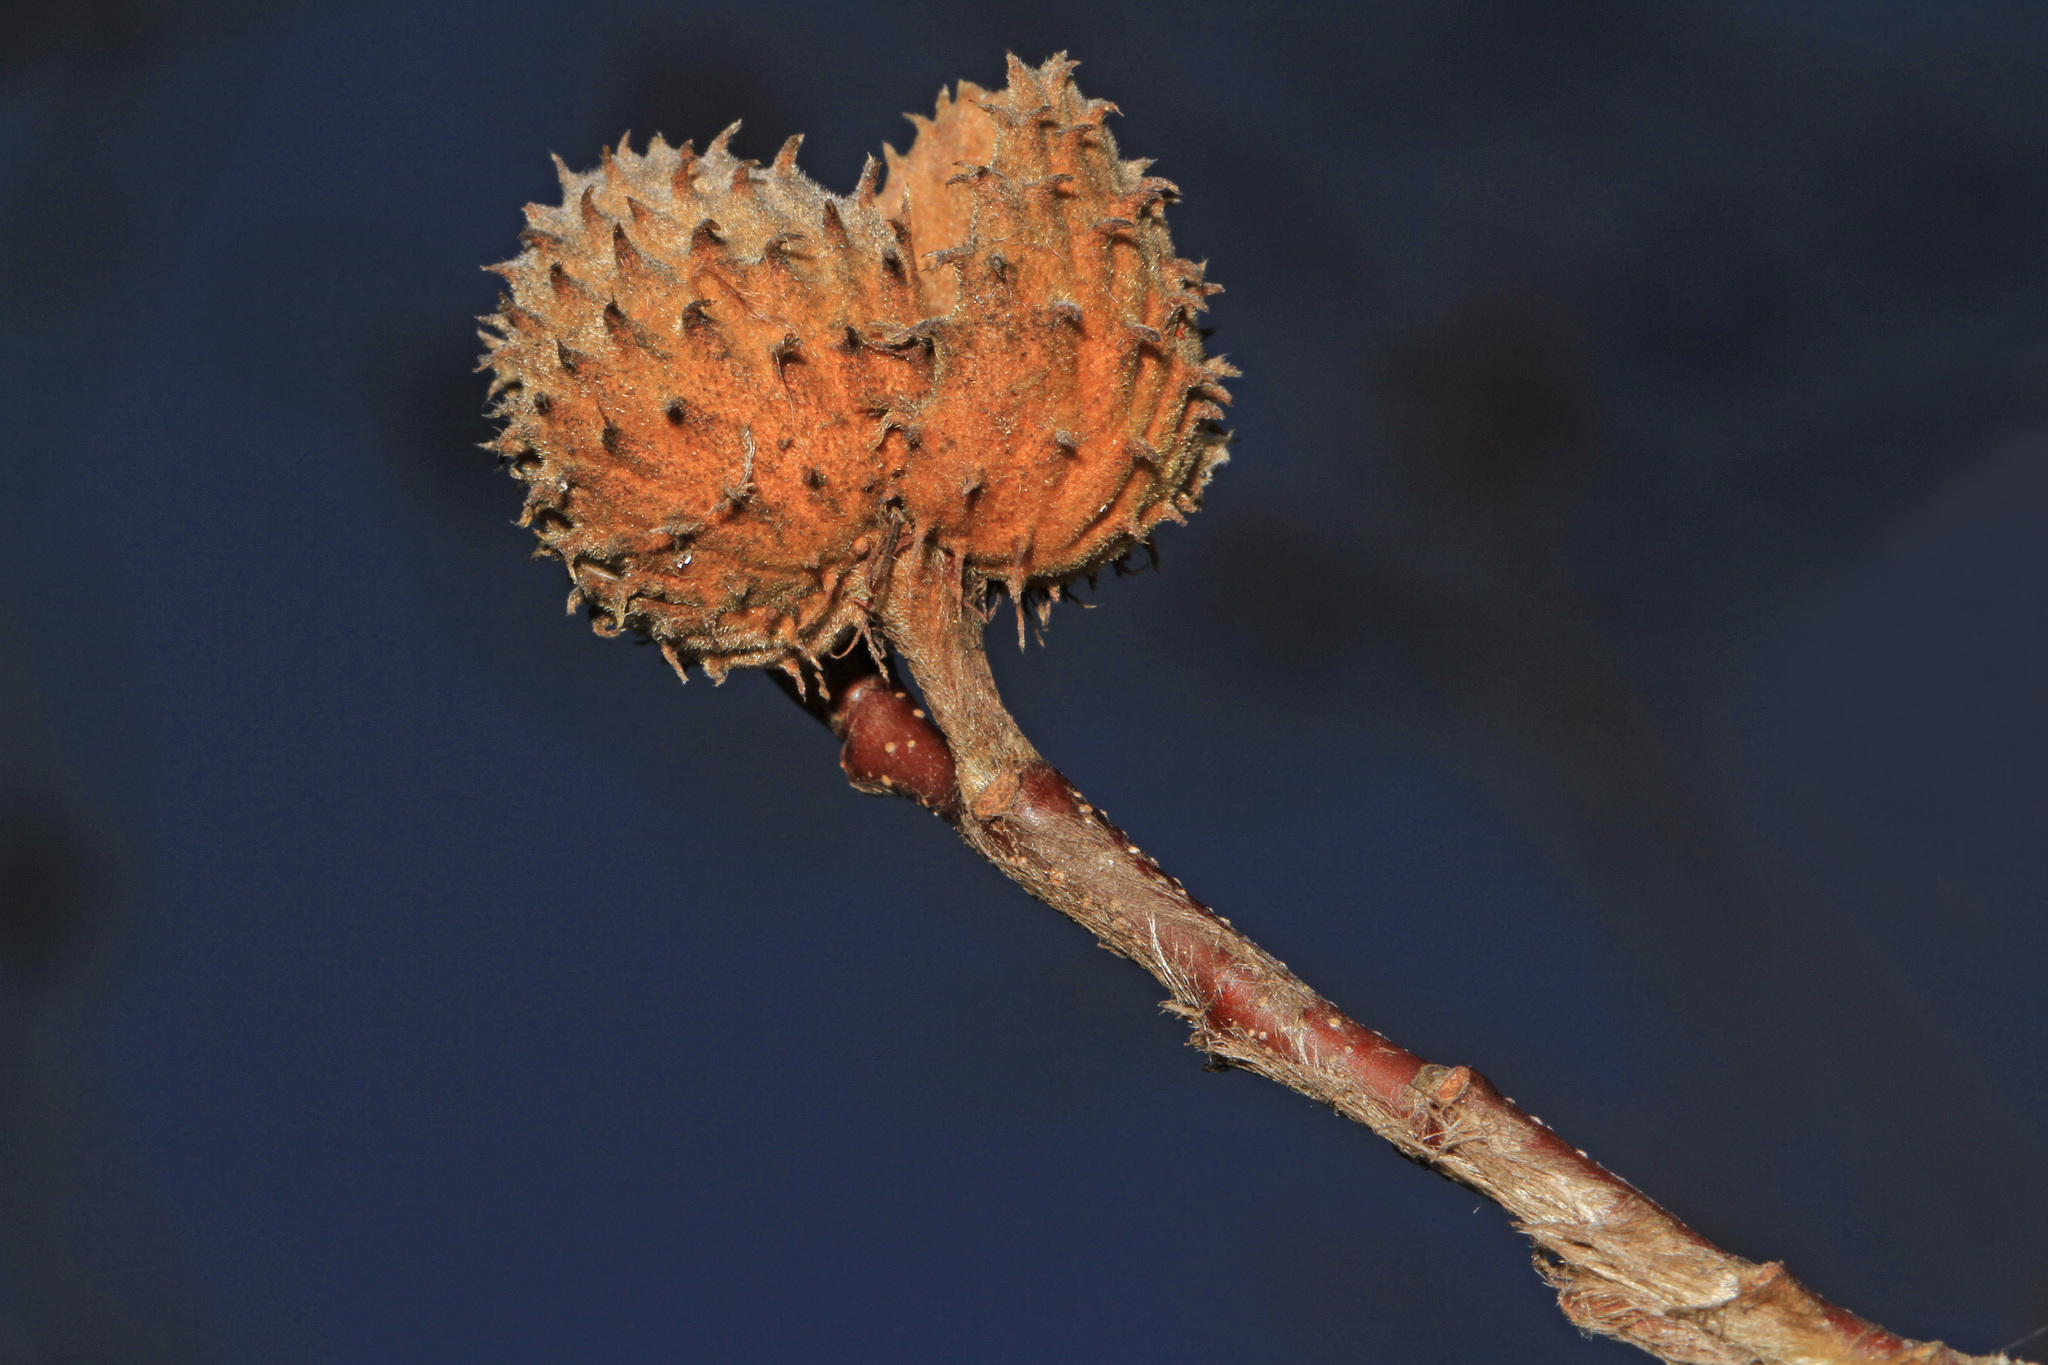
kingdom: Plantae
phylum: Tracheophyta
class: Magnoliopsida
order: Fagales
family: Fagaceae
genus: Fagus
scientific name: Fagus grandifolia
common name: American beech
